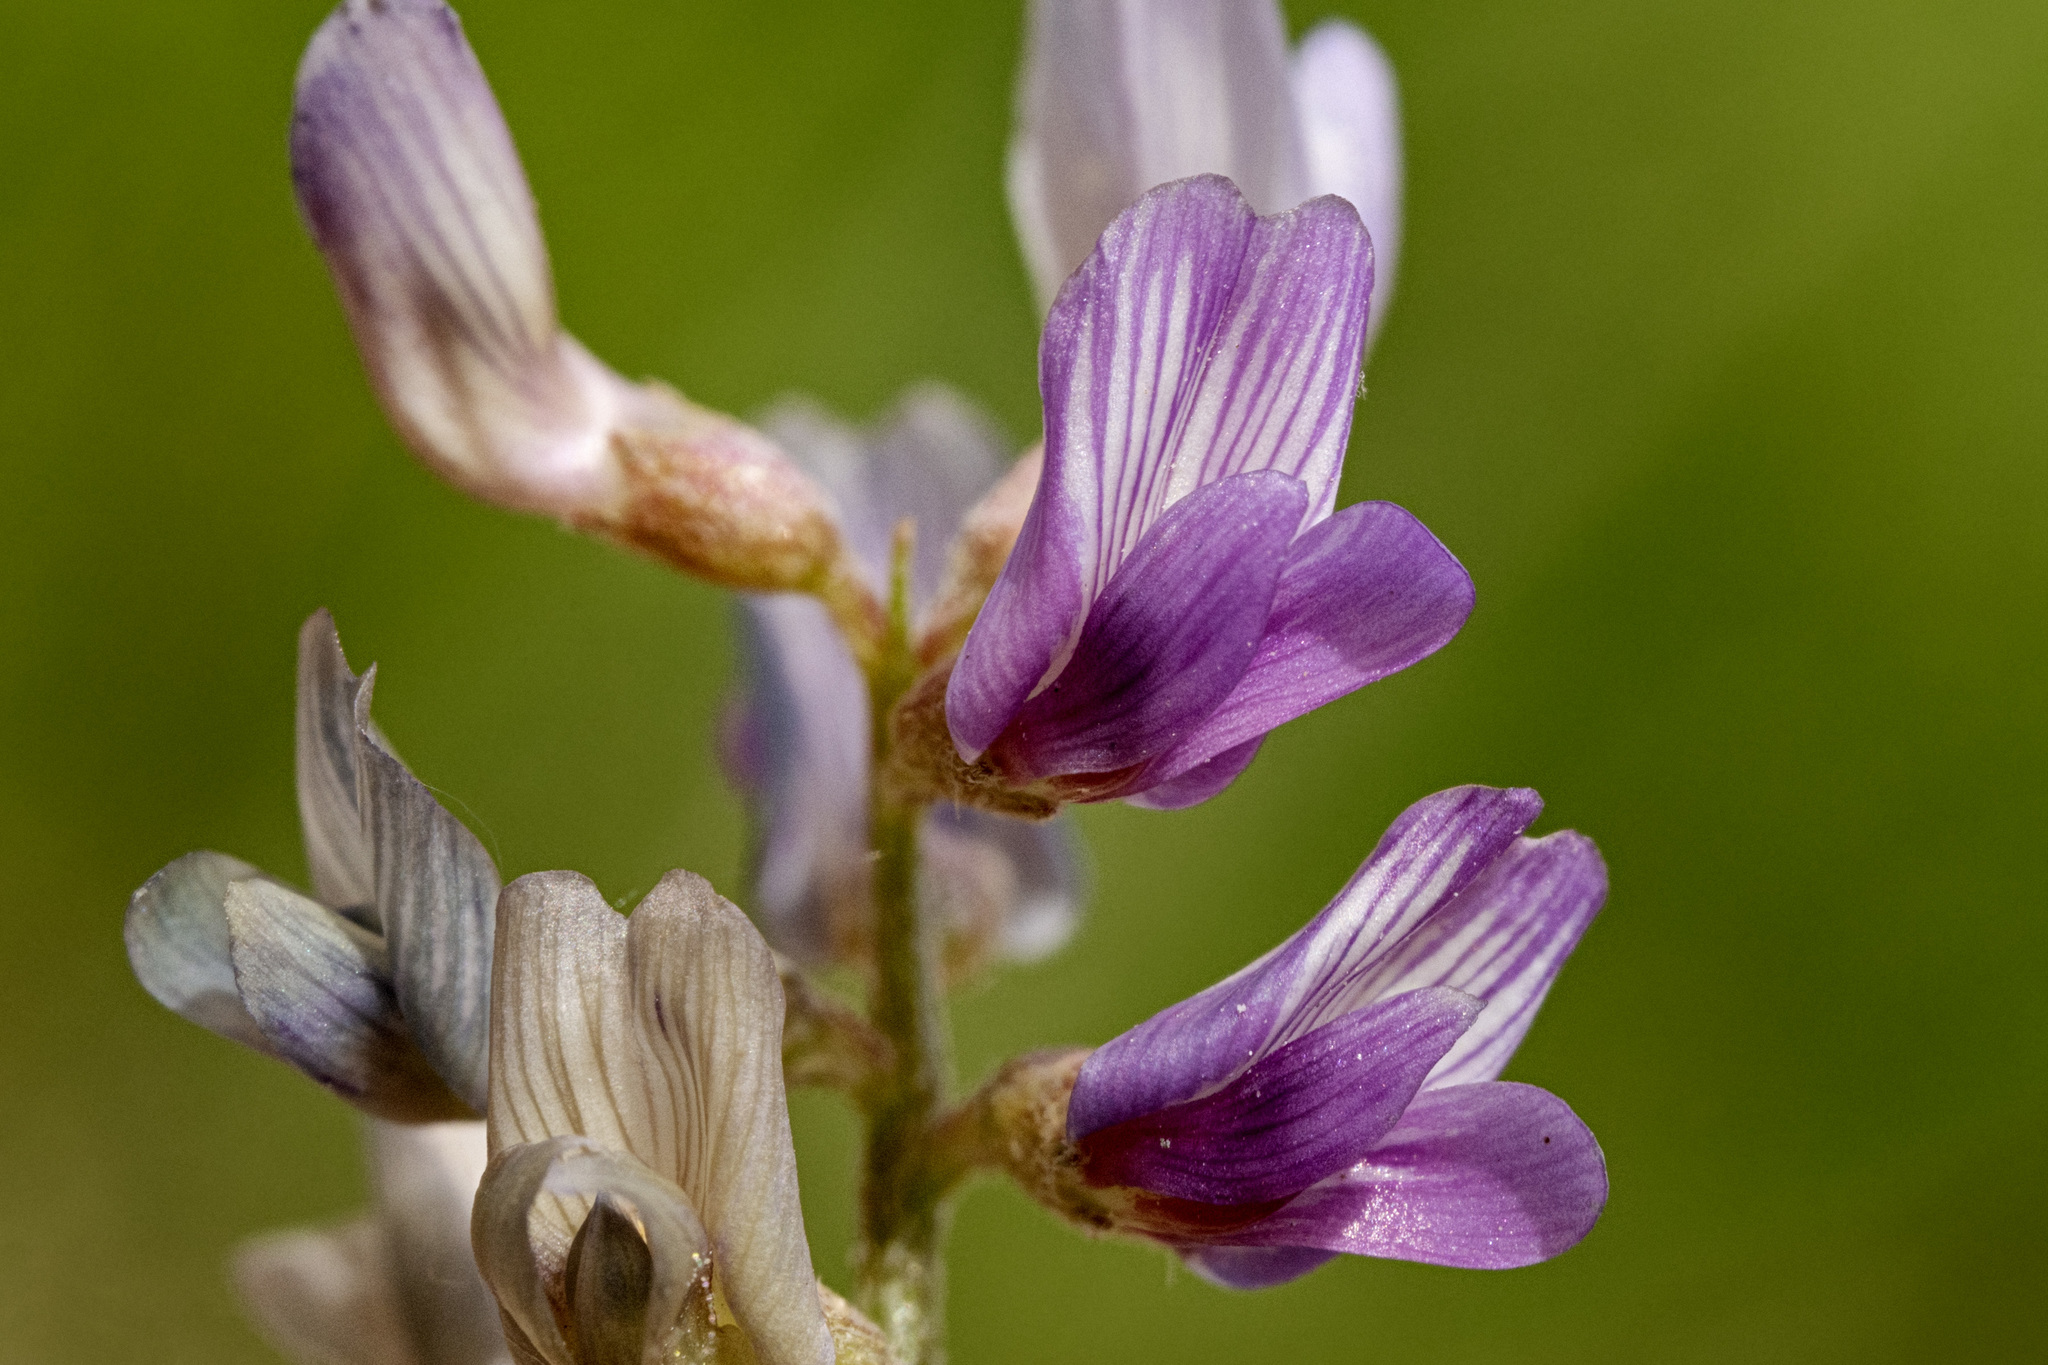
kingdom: Plantae
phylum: Tracheophyta
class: Magnoliopsida
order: Fabales
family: Fabaceae
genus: Astragalus
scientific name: Astragalus gracilis
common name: Slender milk-vetch
